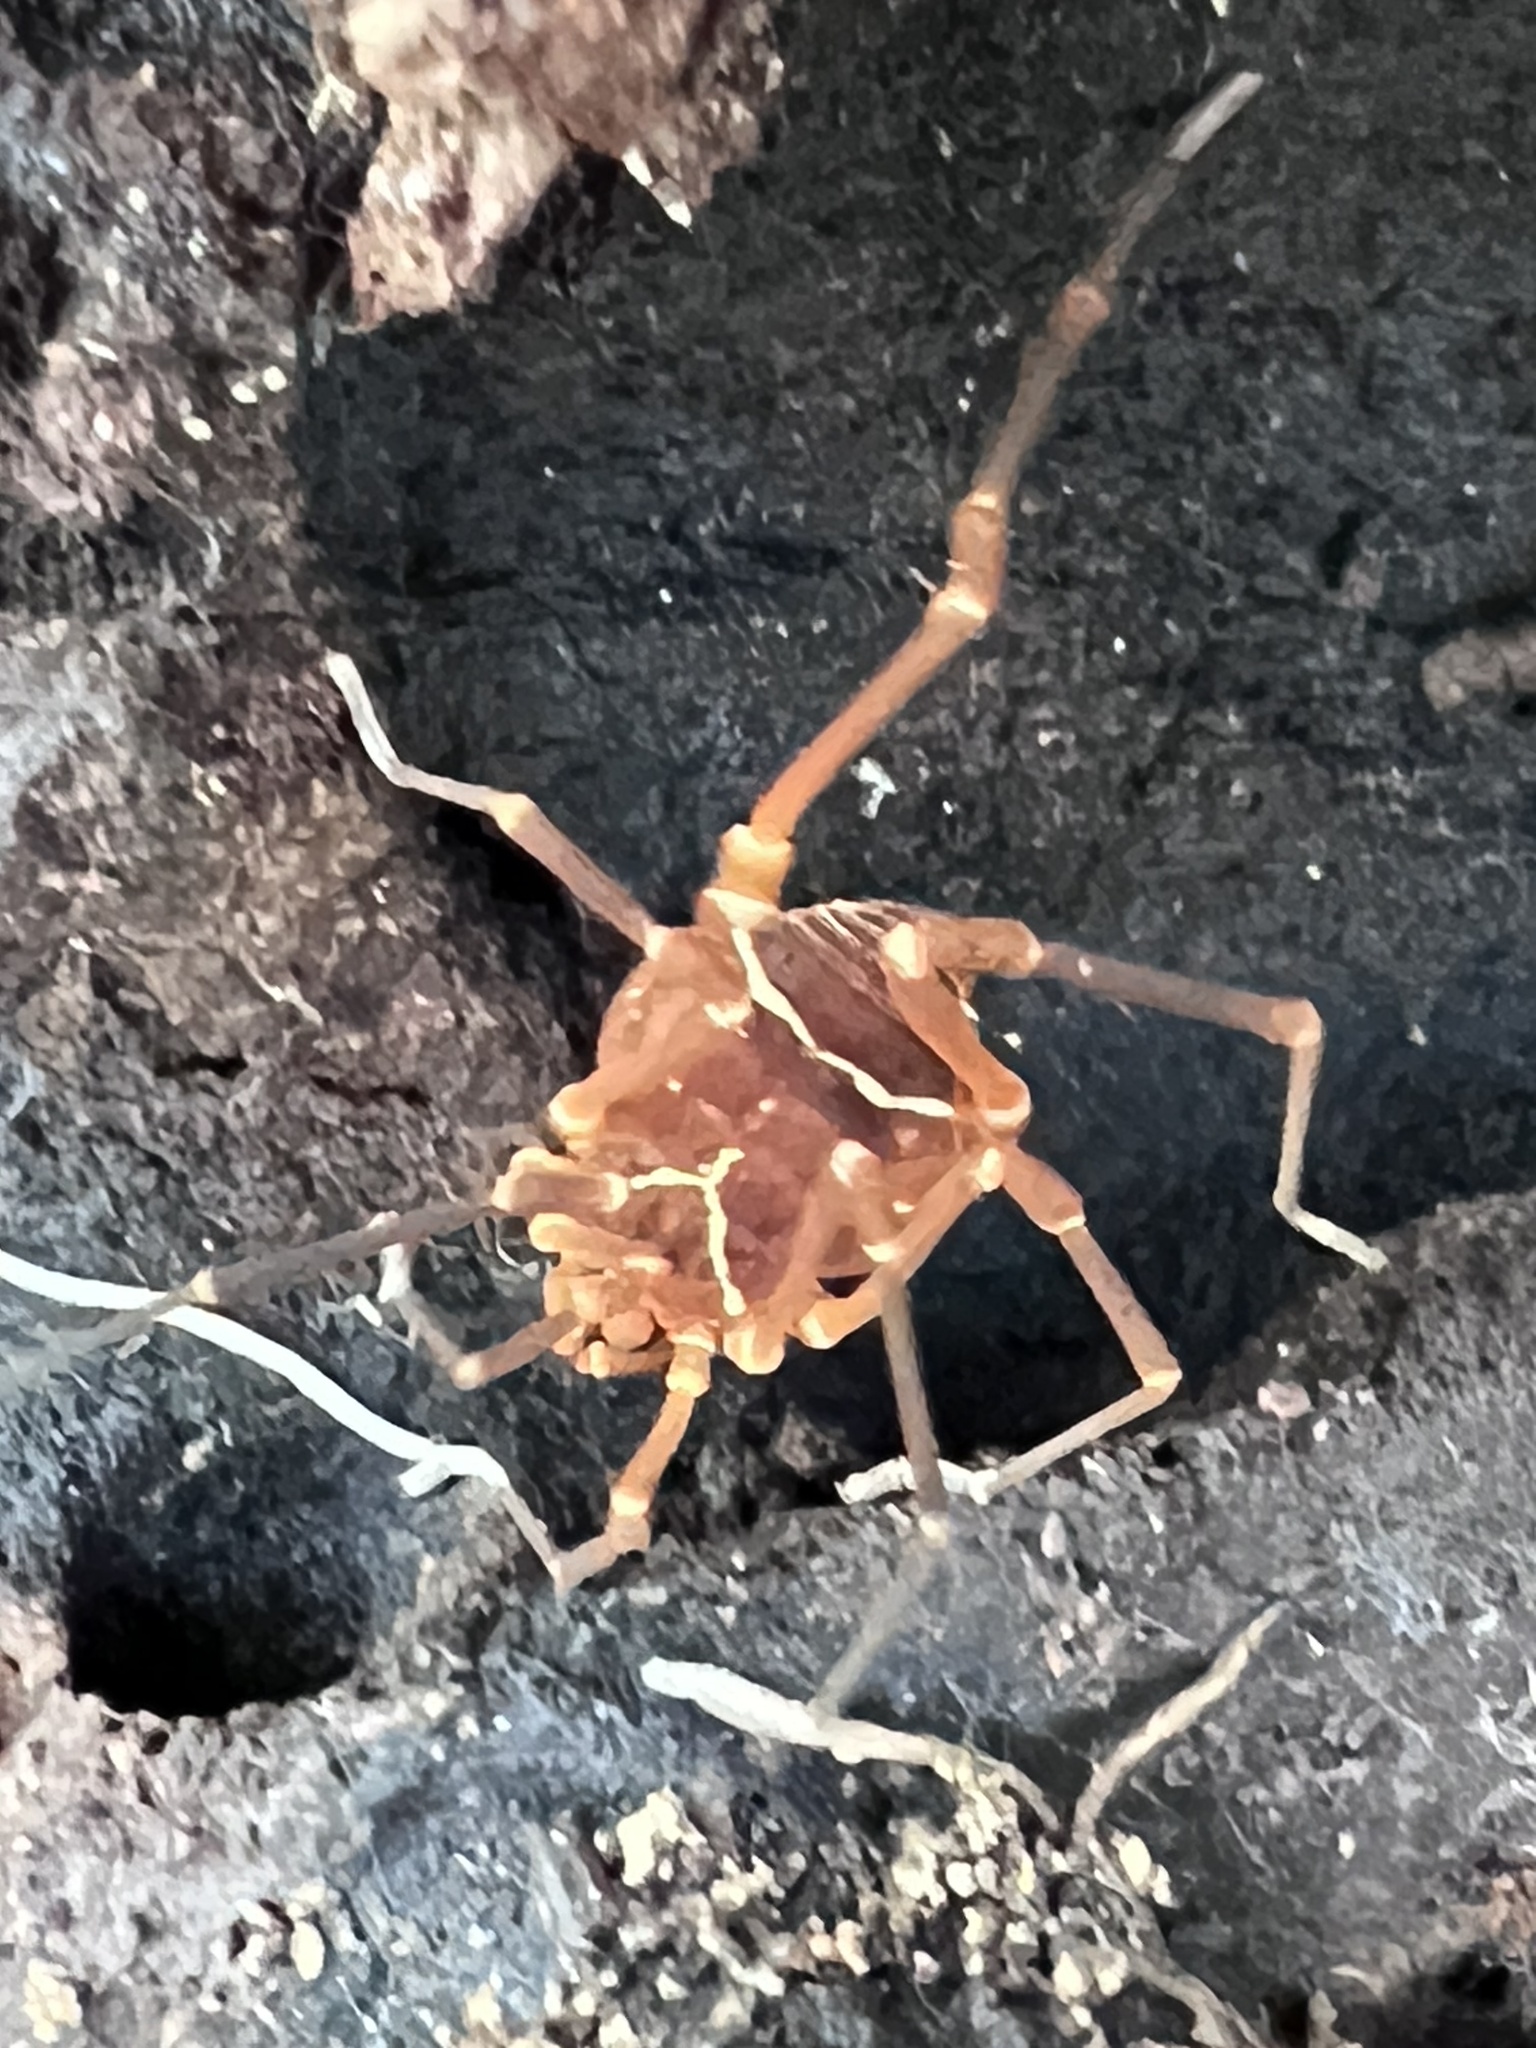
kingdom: Animalia
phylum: Arthropoda
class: Arachnida
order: Opiliones
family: Cosmetidae
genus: Libitioides
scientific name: Libitioides sayi
